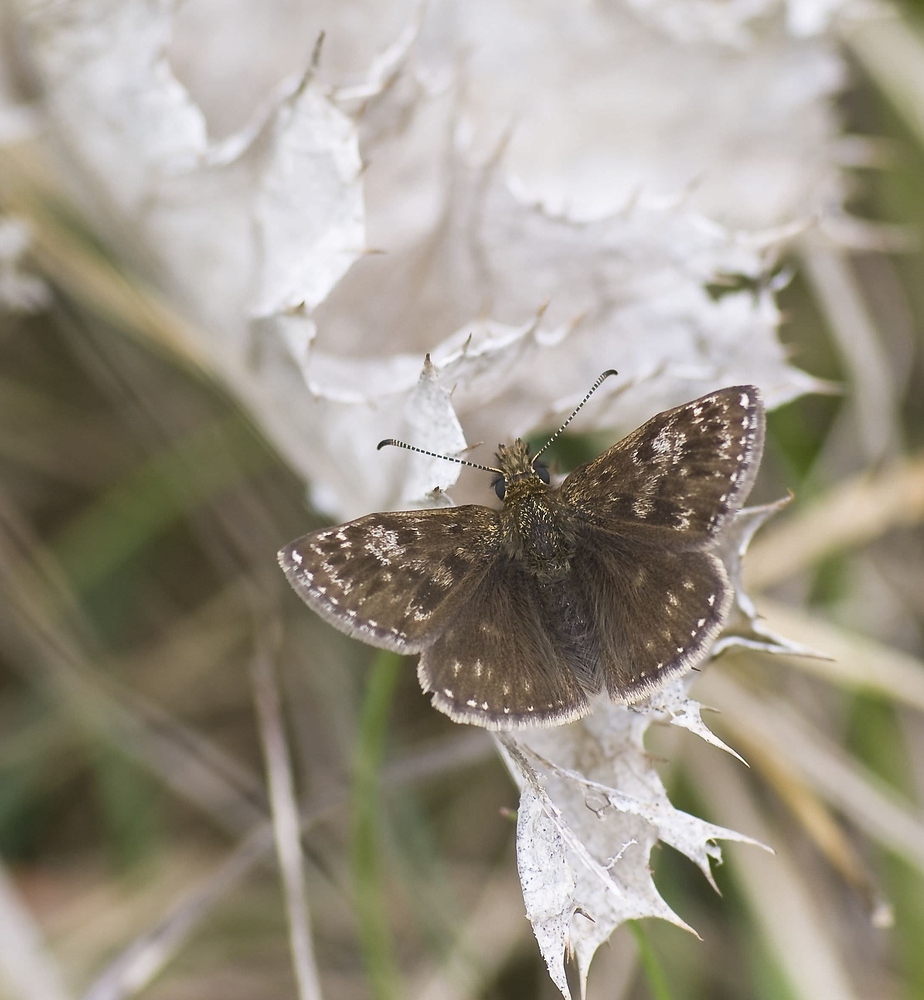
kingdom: Animalia
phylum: Arthropoda
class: Insecta
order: Lepidoptera
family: Hesperiidae
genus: Erynnis
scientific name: Erynnis tages
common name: Dingy skipper
